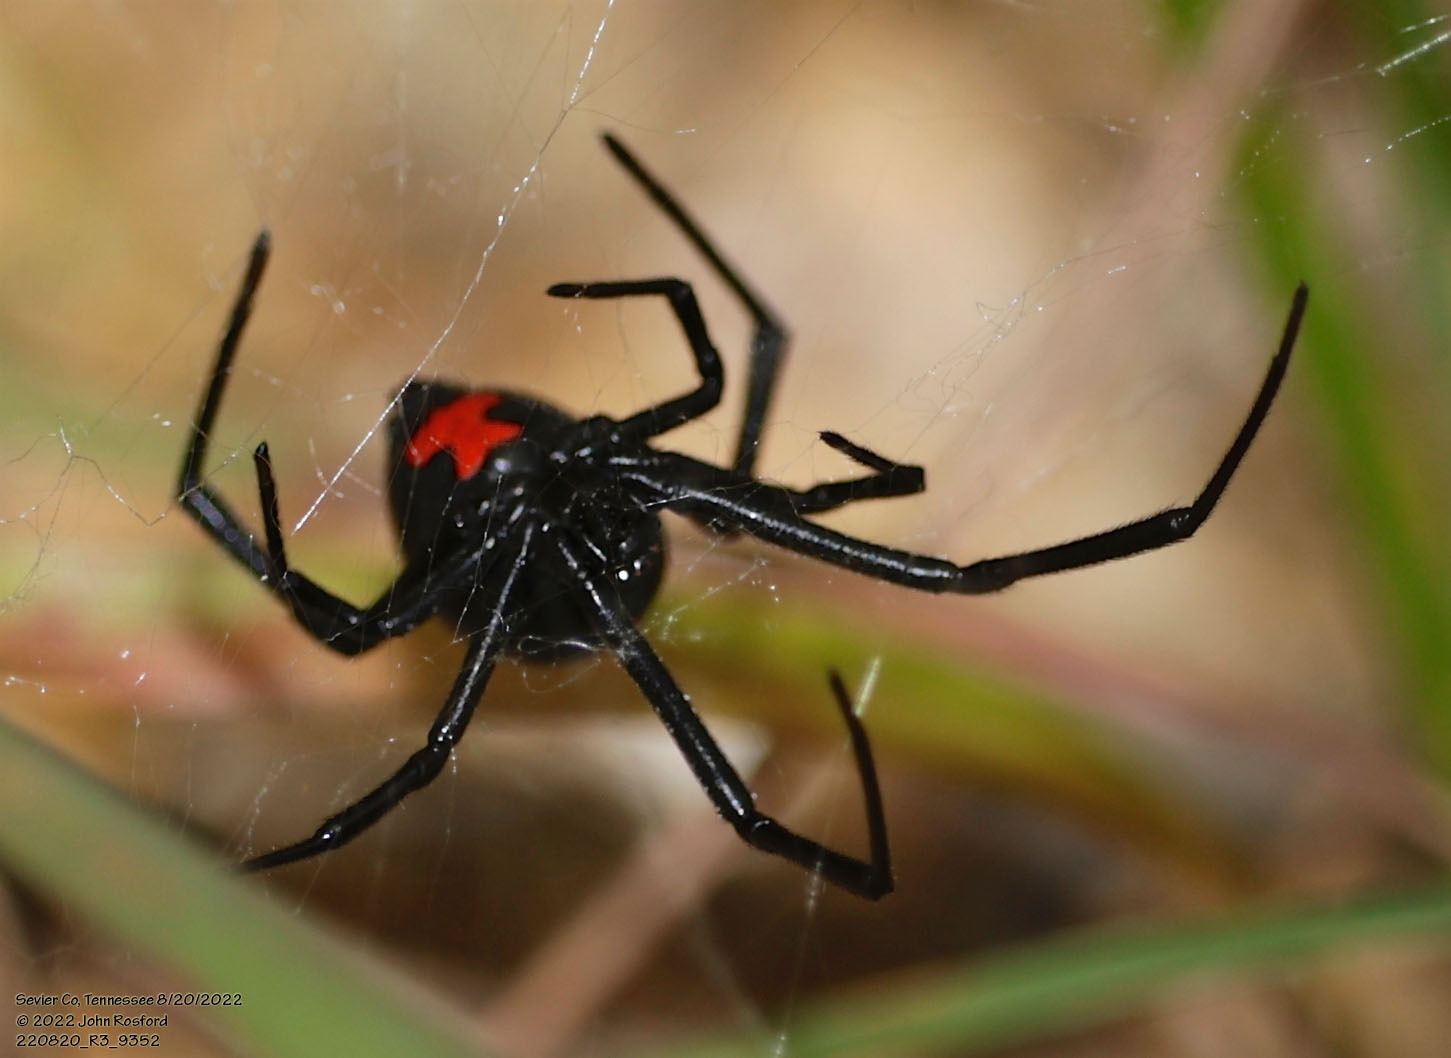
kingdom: Animalia
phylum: Arthropoda
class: Arachnida
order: Araneae
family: Theridiidae
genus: Latrodectus
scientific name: Latrodectus mactans
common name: Cobweb spiders
